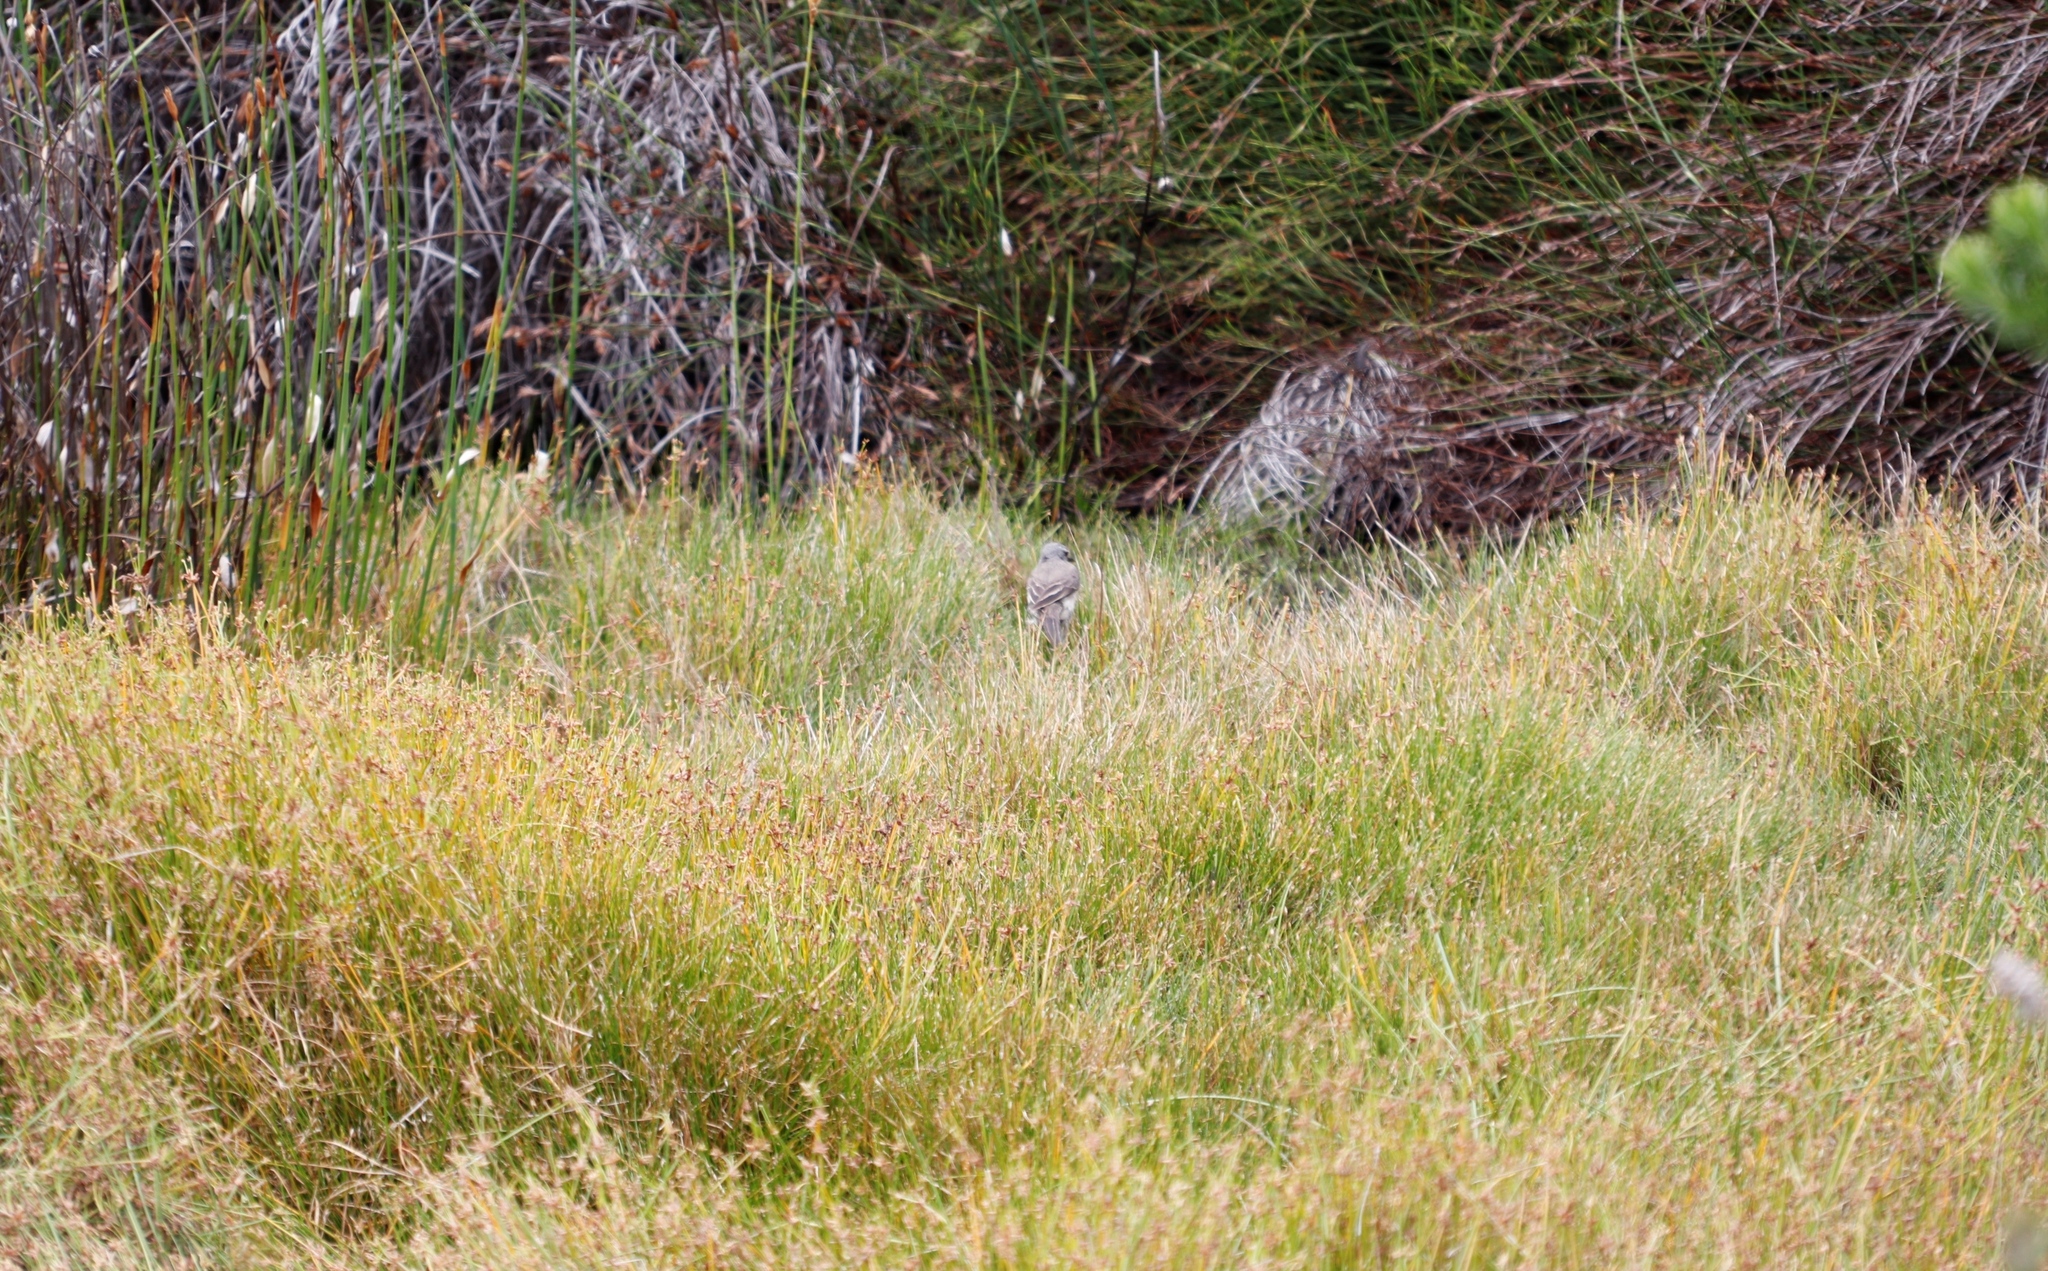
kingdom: Plantae
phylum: Tracheophyta
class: Liliopsida
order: Poales
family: Cyperaceae
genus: Isolepis
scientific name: Isolepis prolifera
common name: Proliferating bulrush
